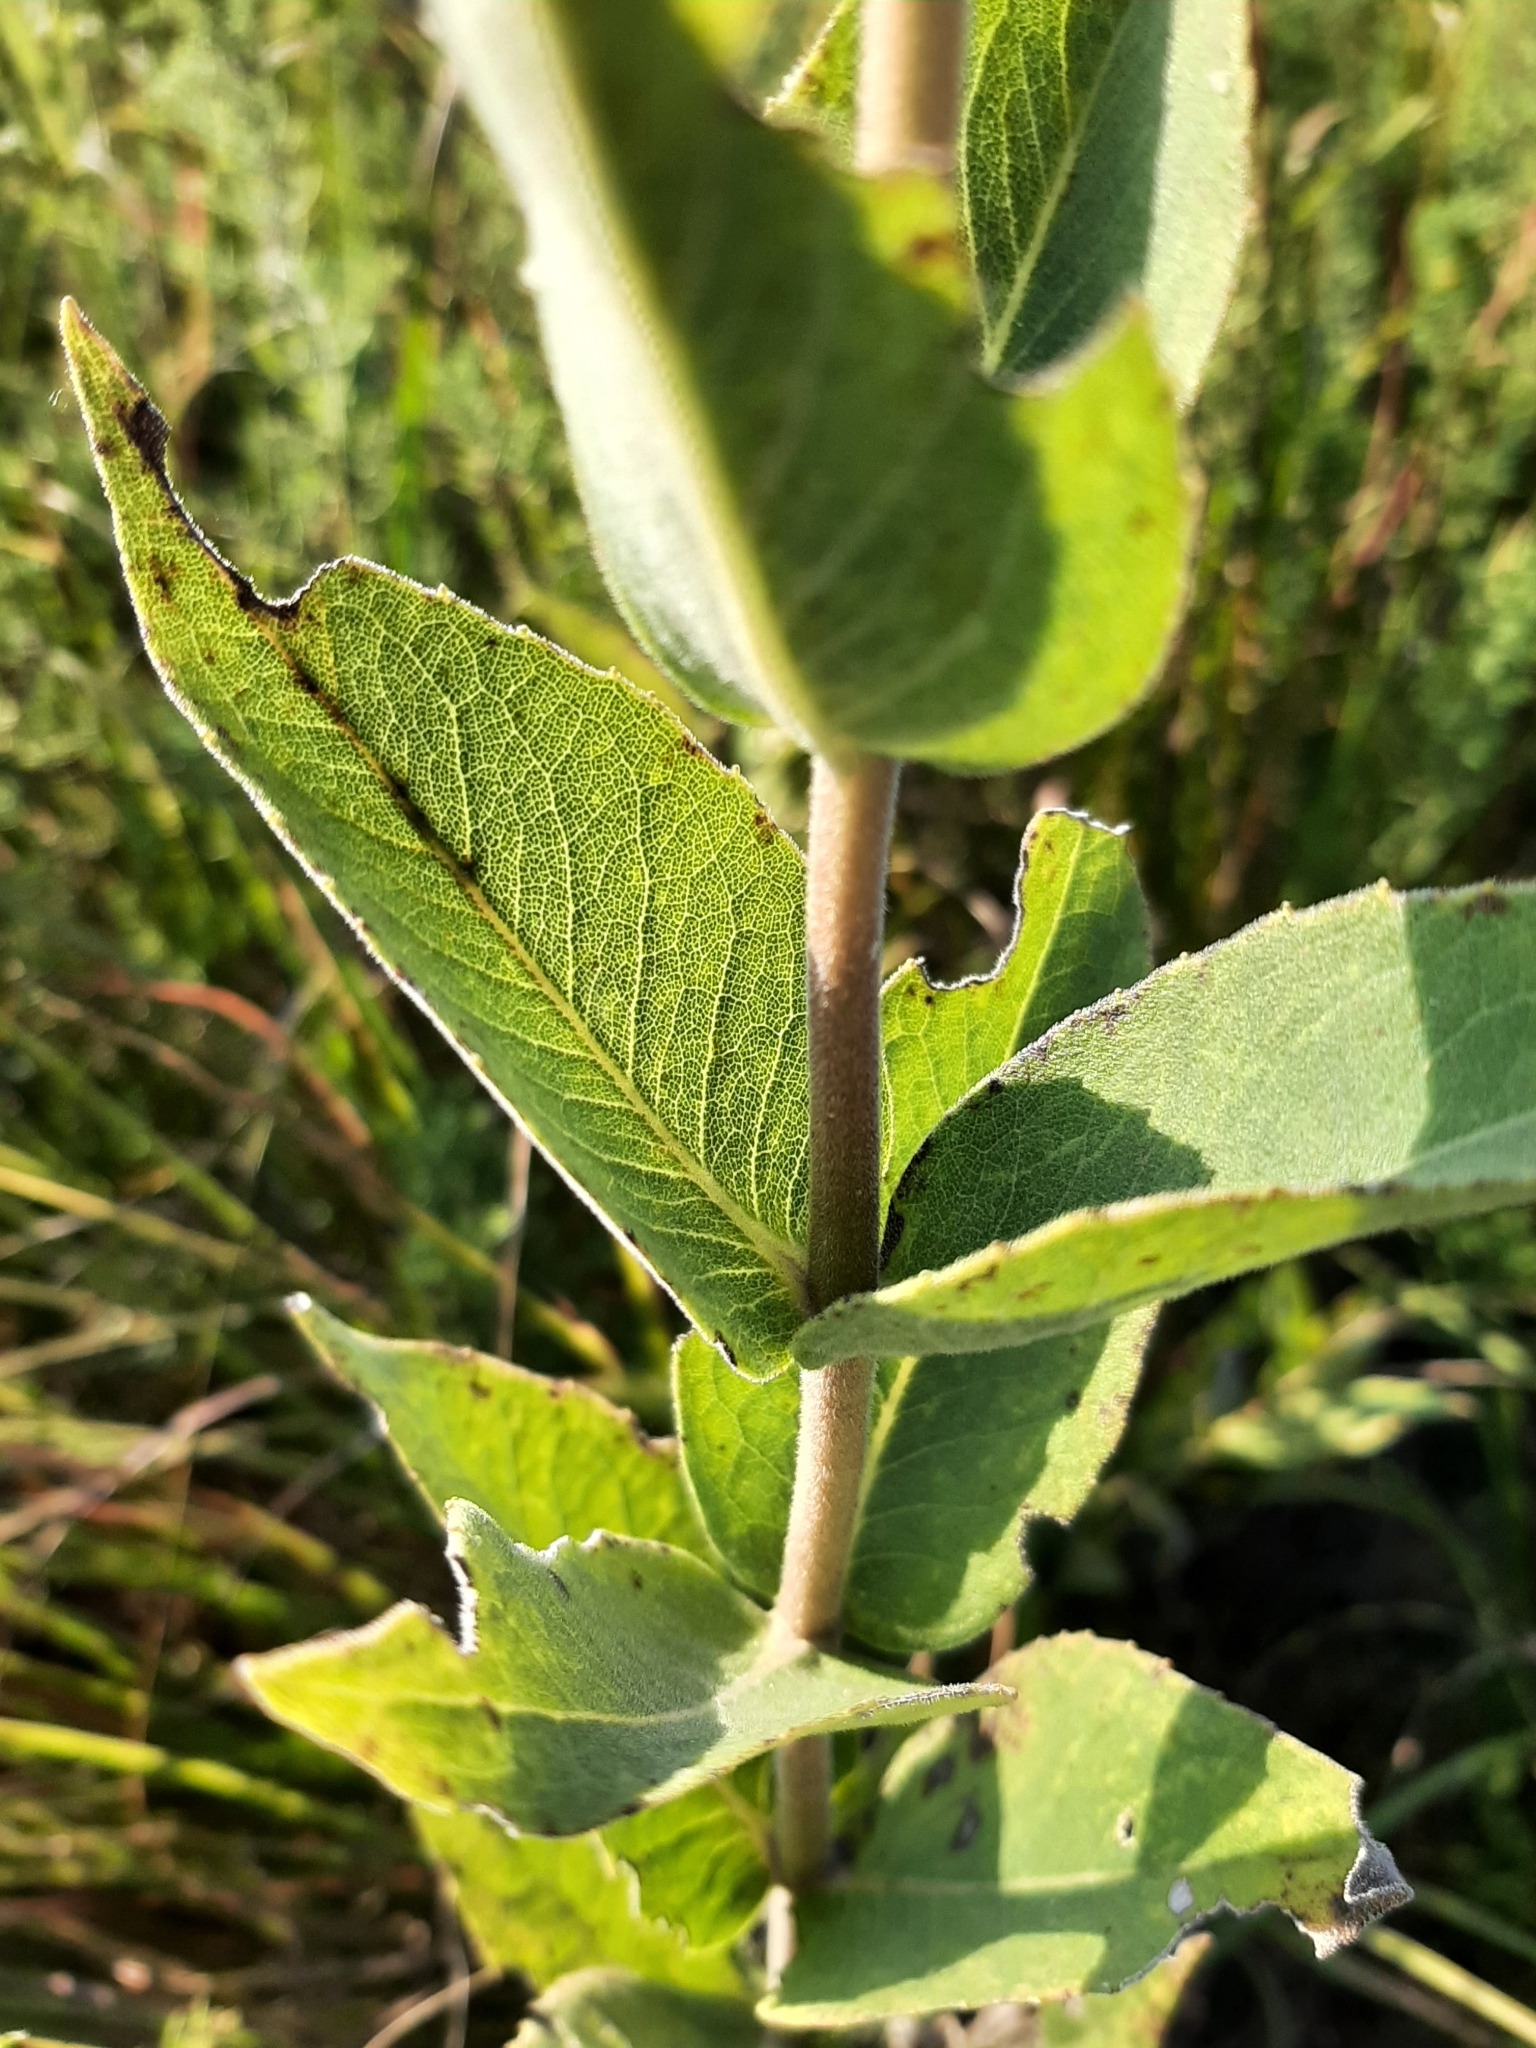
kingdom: Plantae
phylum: Tracheophyta
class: Magnoliopsida
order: Asterales
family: Asteraceae
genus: Silphium
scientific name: Silphium integrifolium
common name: Whole-leaf rosinweed
